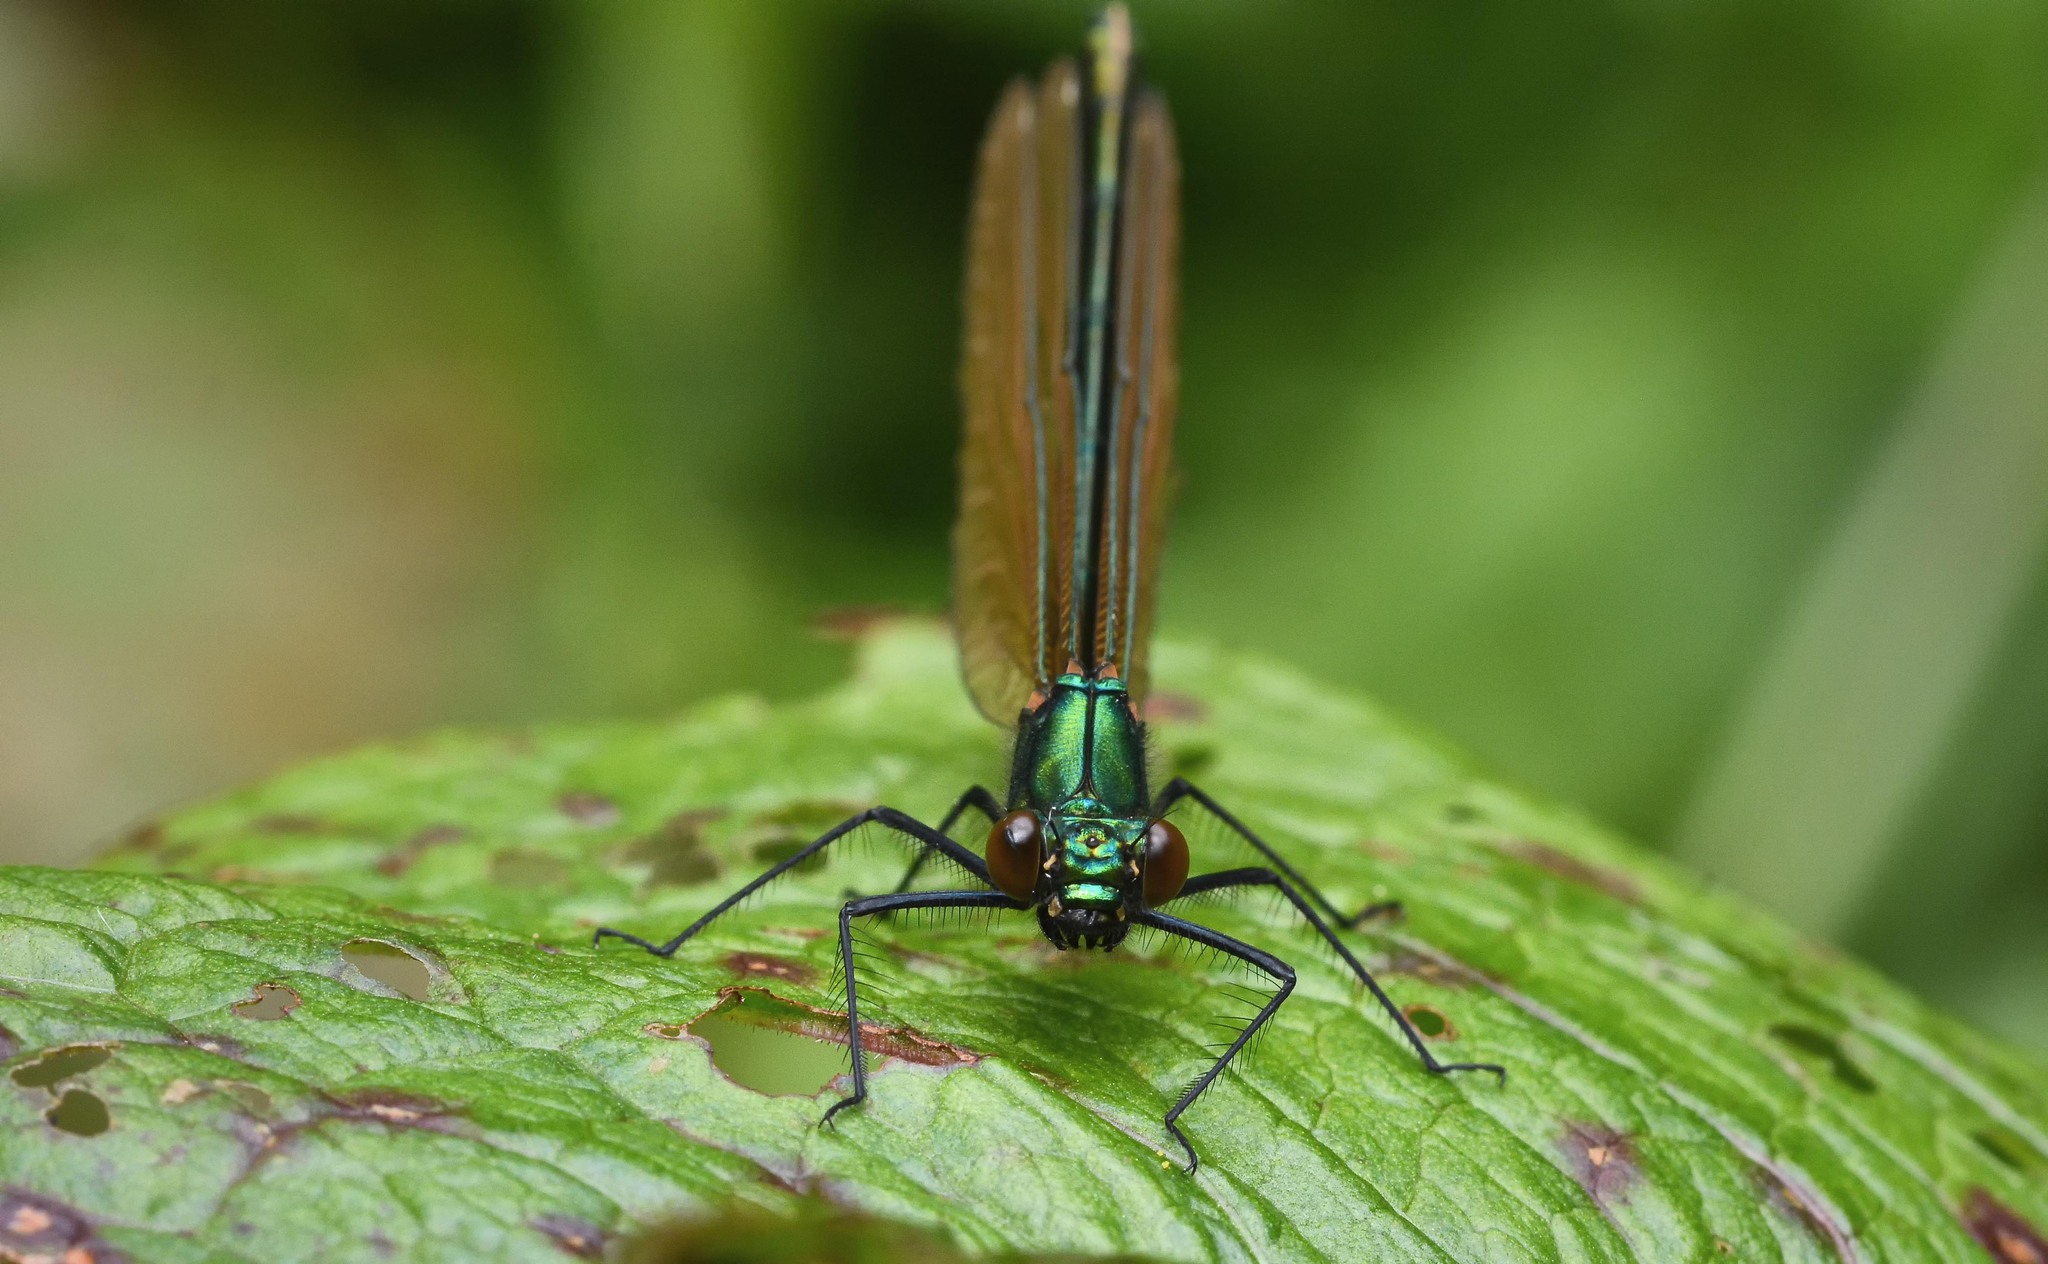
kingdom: Animalia
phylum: Arthropoda
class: Insecta
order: Odonata
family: Calopterygidae
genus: Calopteryx
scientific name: Calopteryx virgo
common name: Beautiful demoiselle
